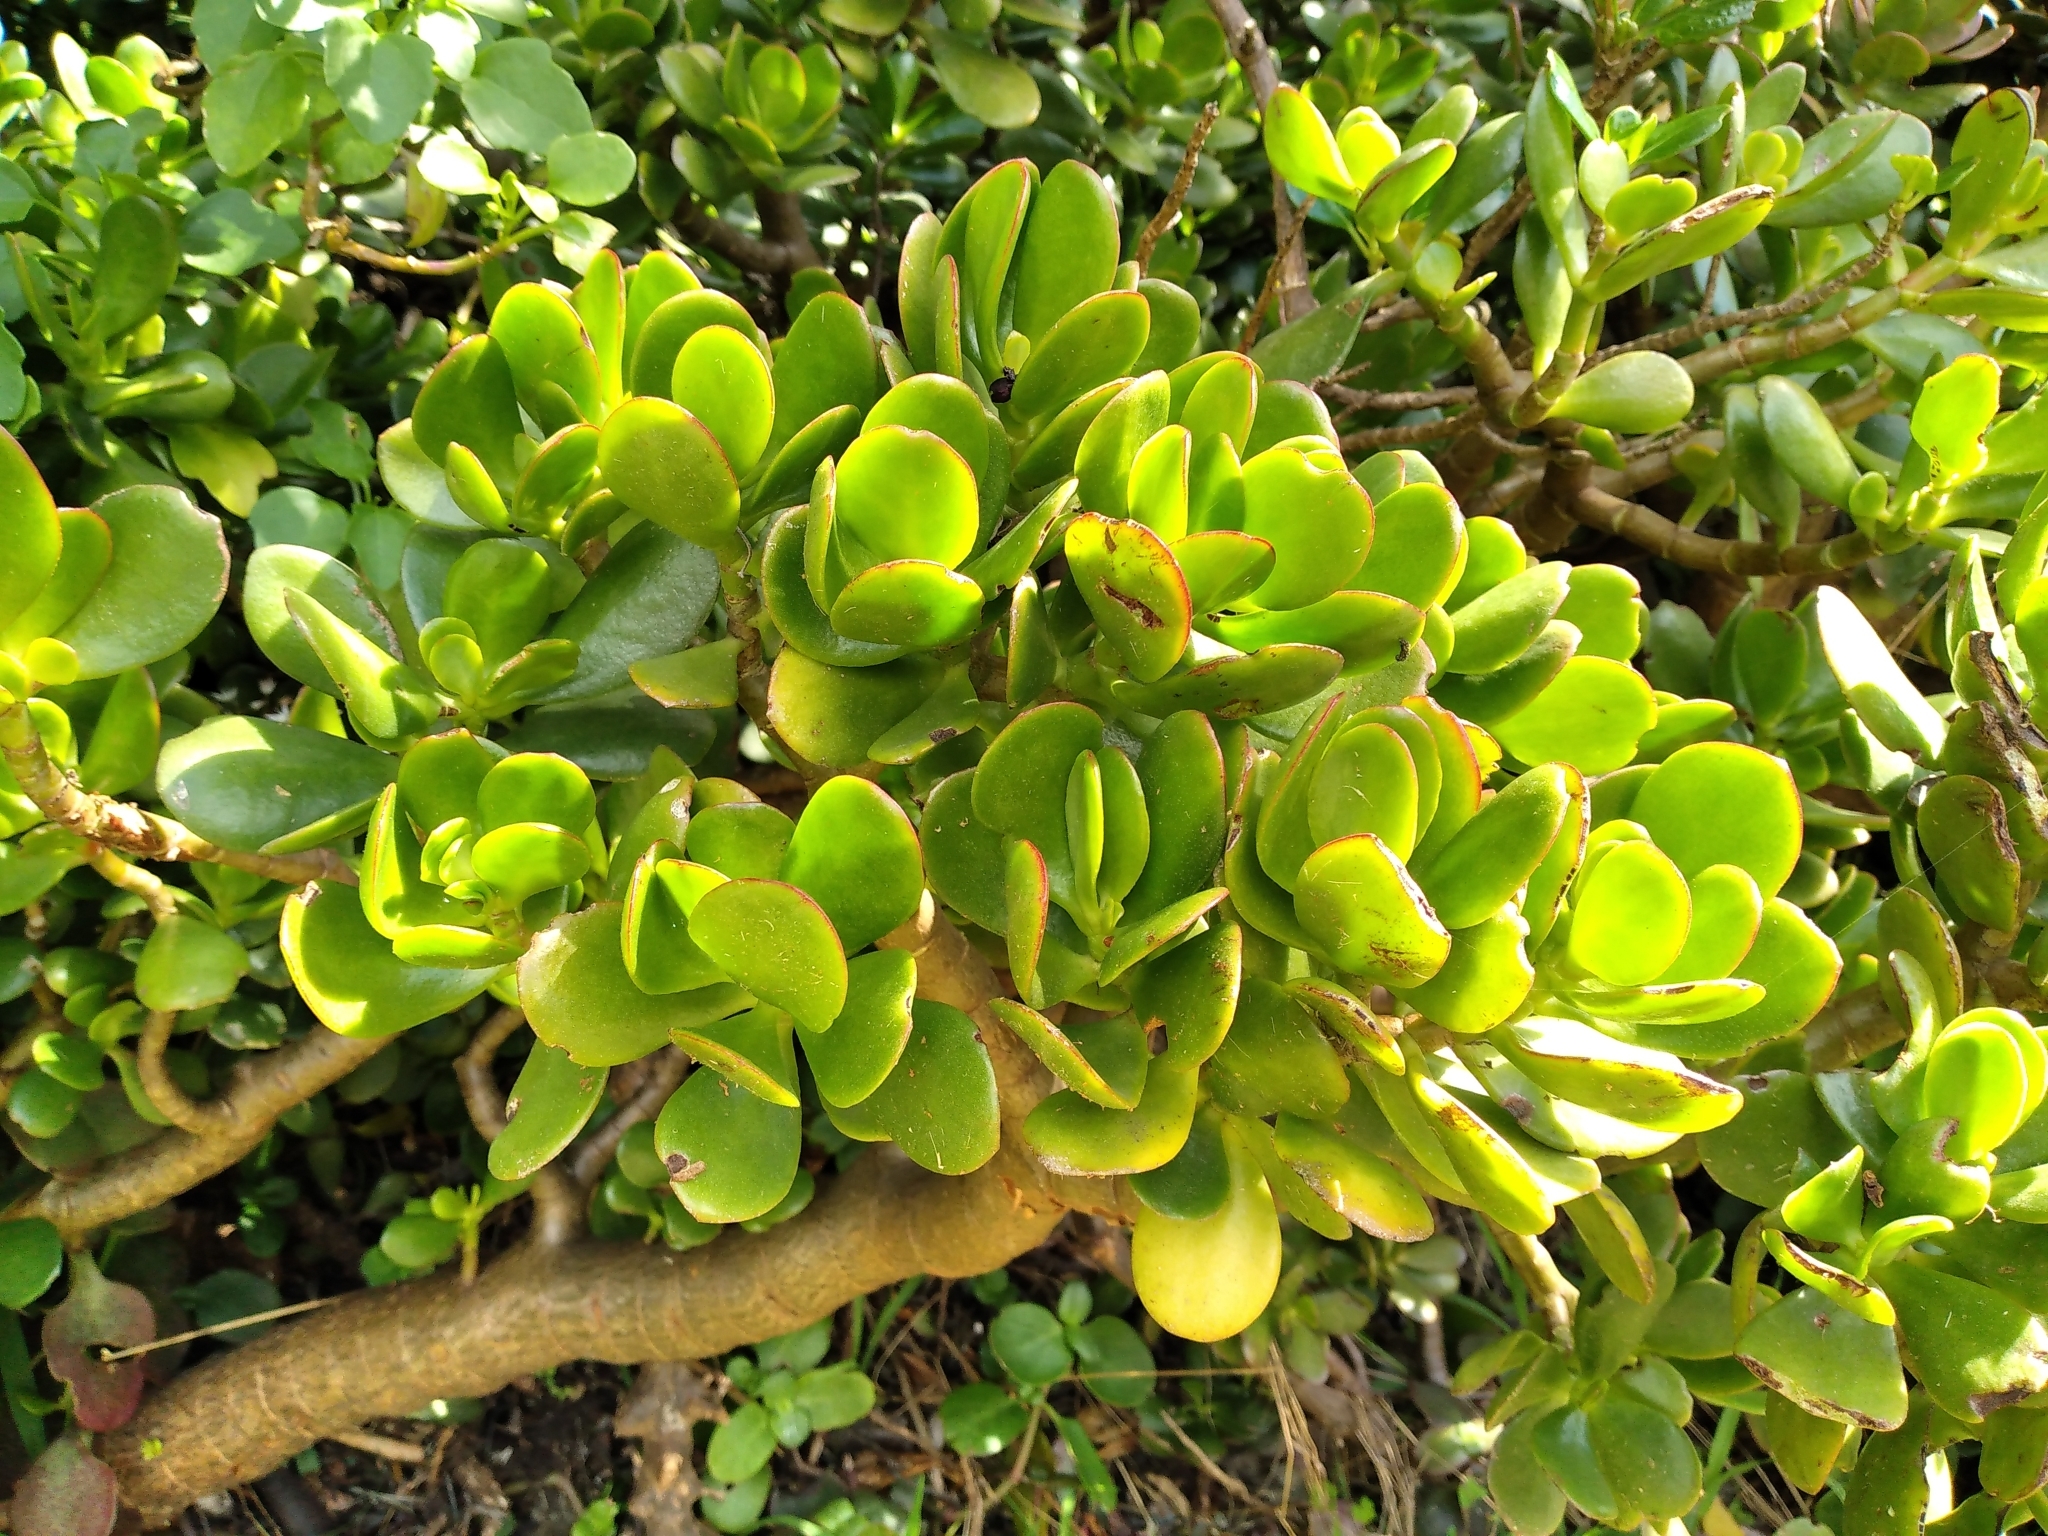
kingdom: Plantae
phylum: Tracheophyta
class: Magnoliopsida
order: Saxifragales
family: Crassulaceae
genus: Crassula
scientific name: Crassula ovata
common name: Jade plant
